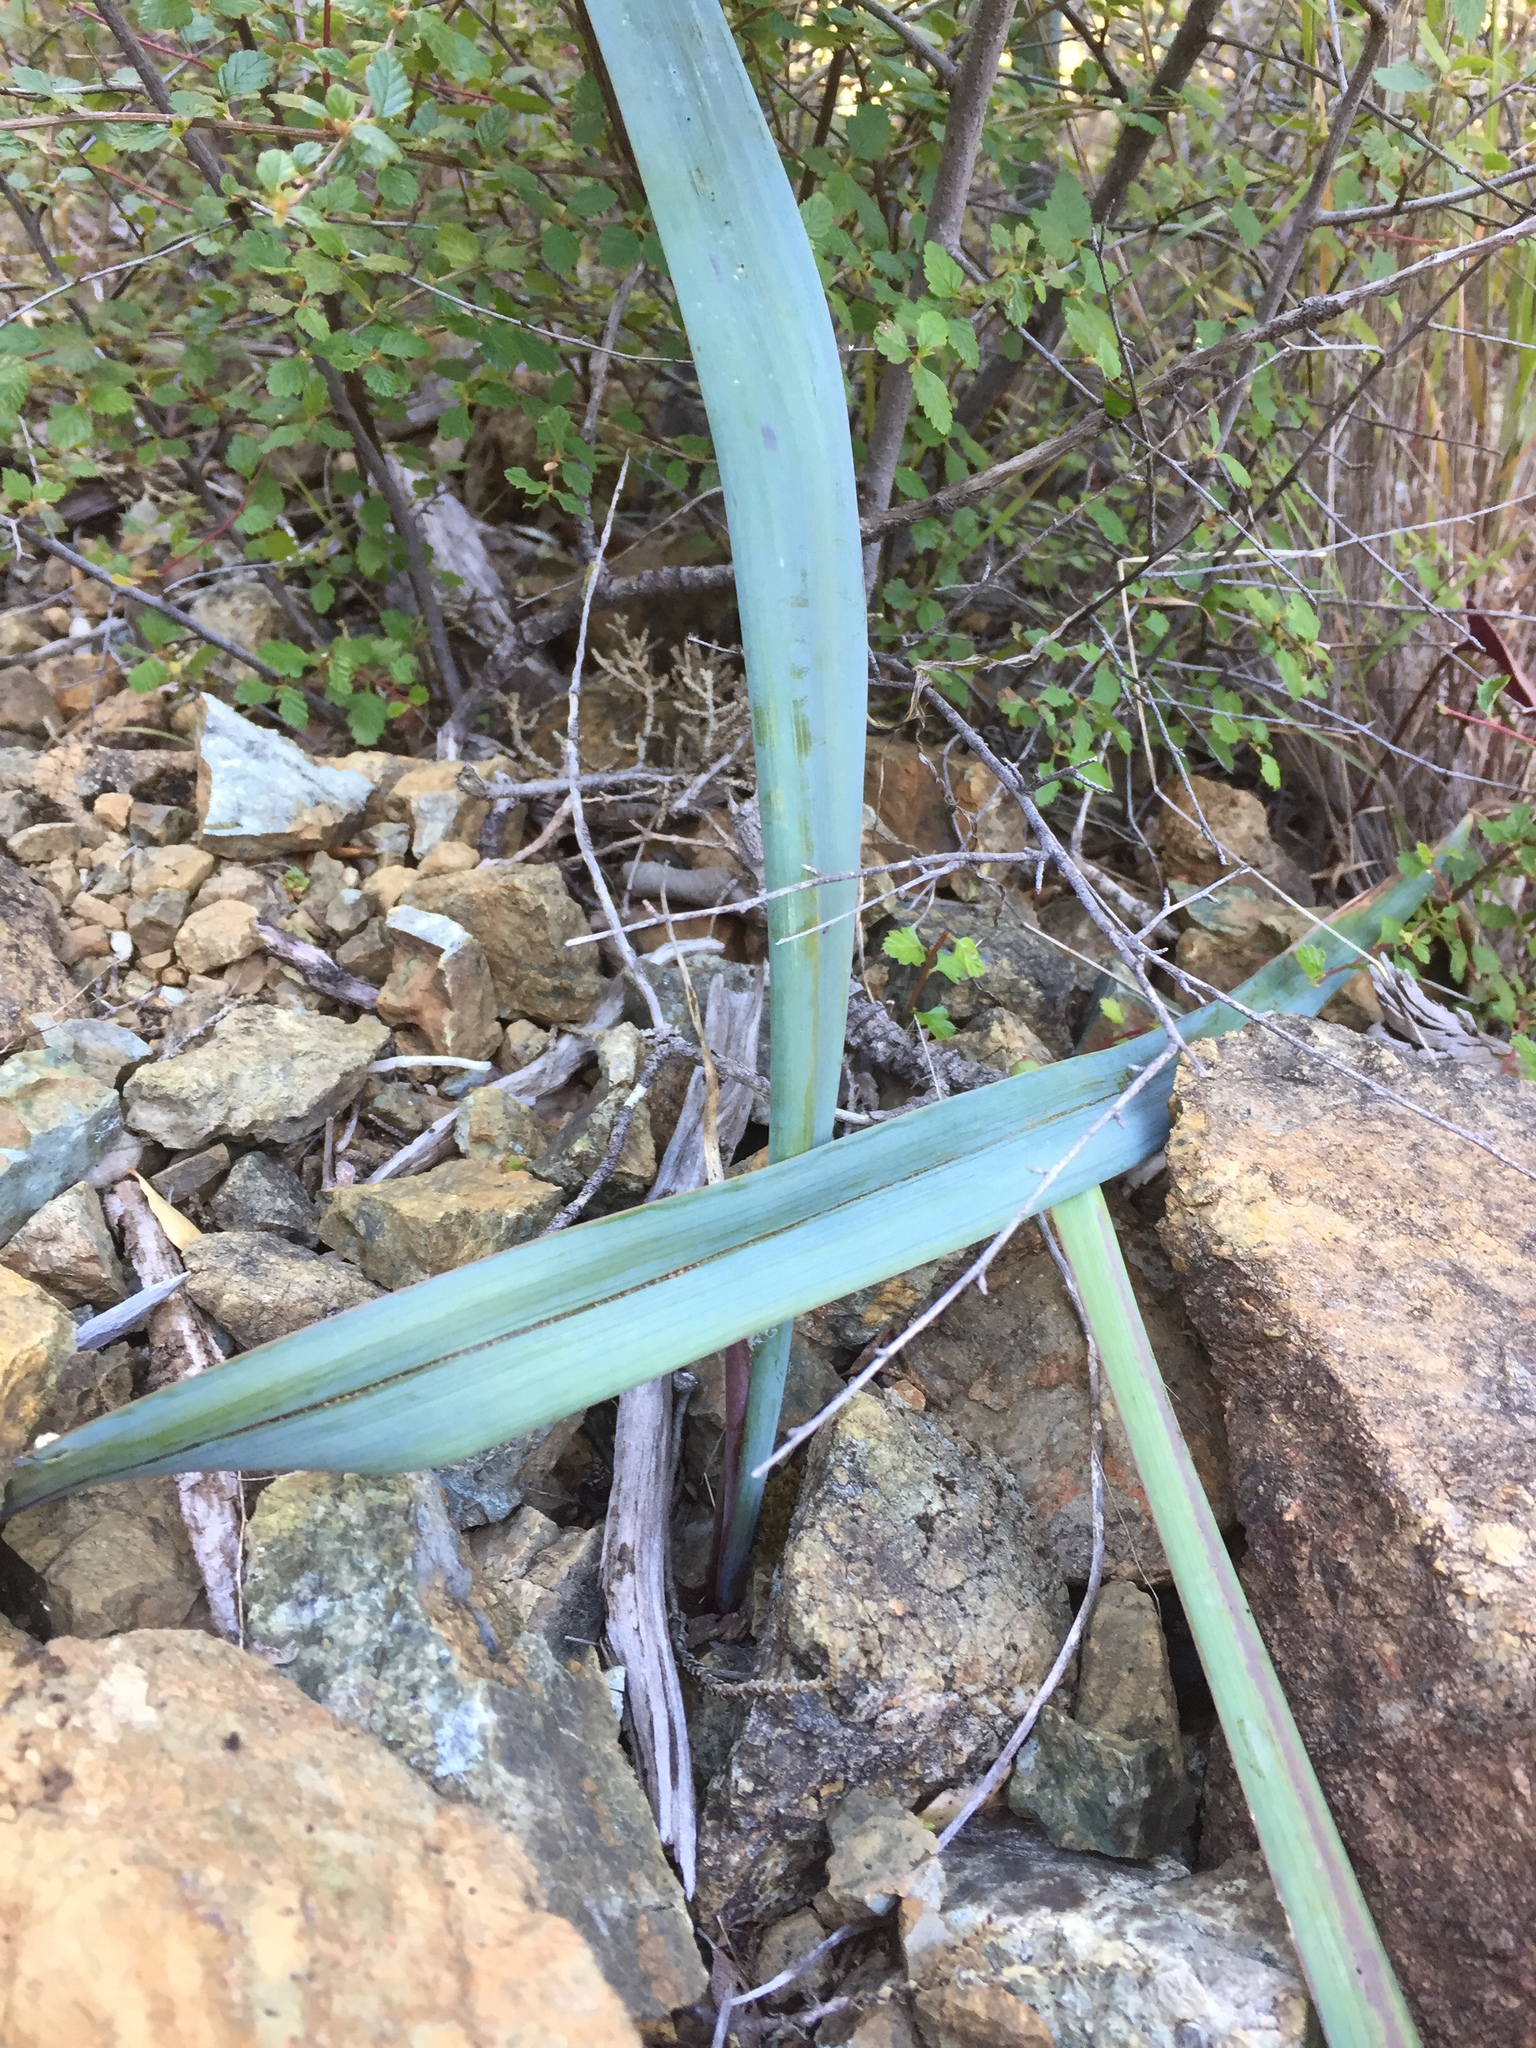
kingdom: Plantae
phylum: Tracheophyta
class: Liliopsida
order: Liliales
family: Liliaceae
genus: Calochortus
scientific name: Calochortus raichei
